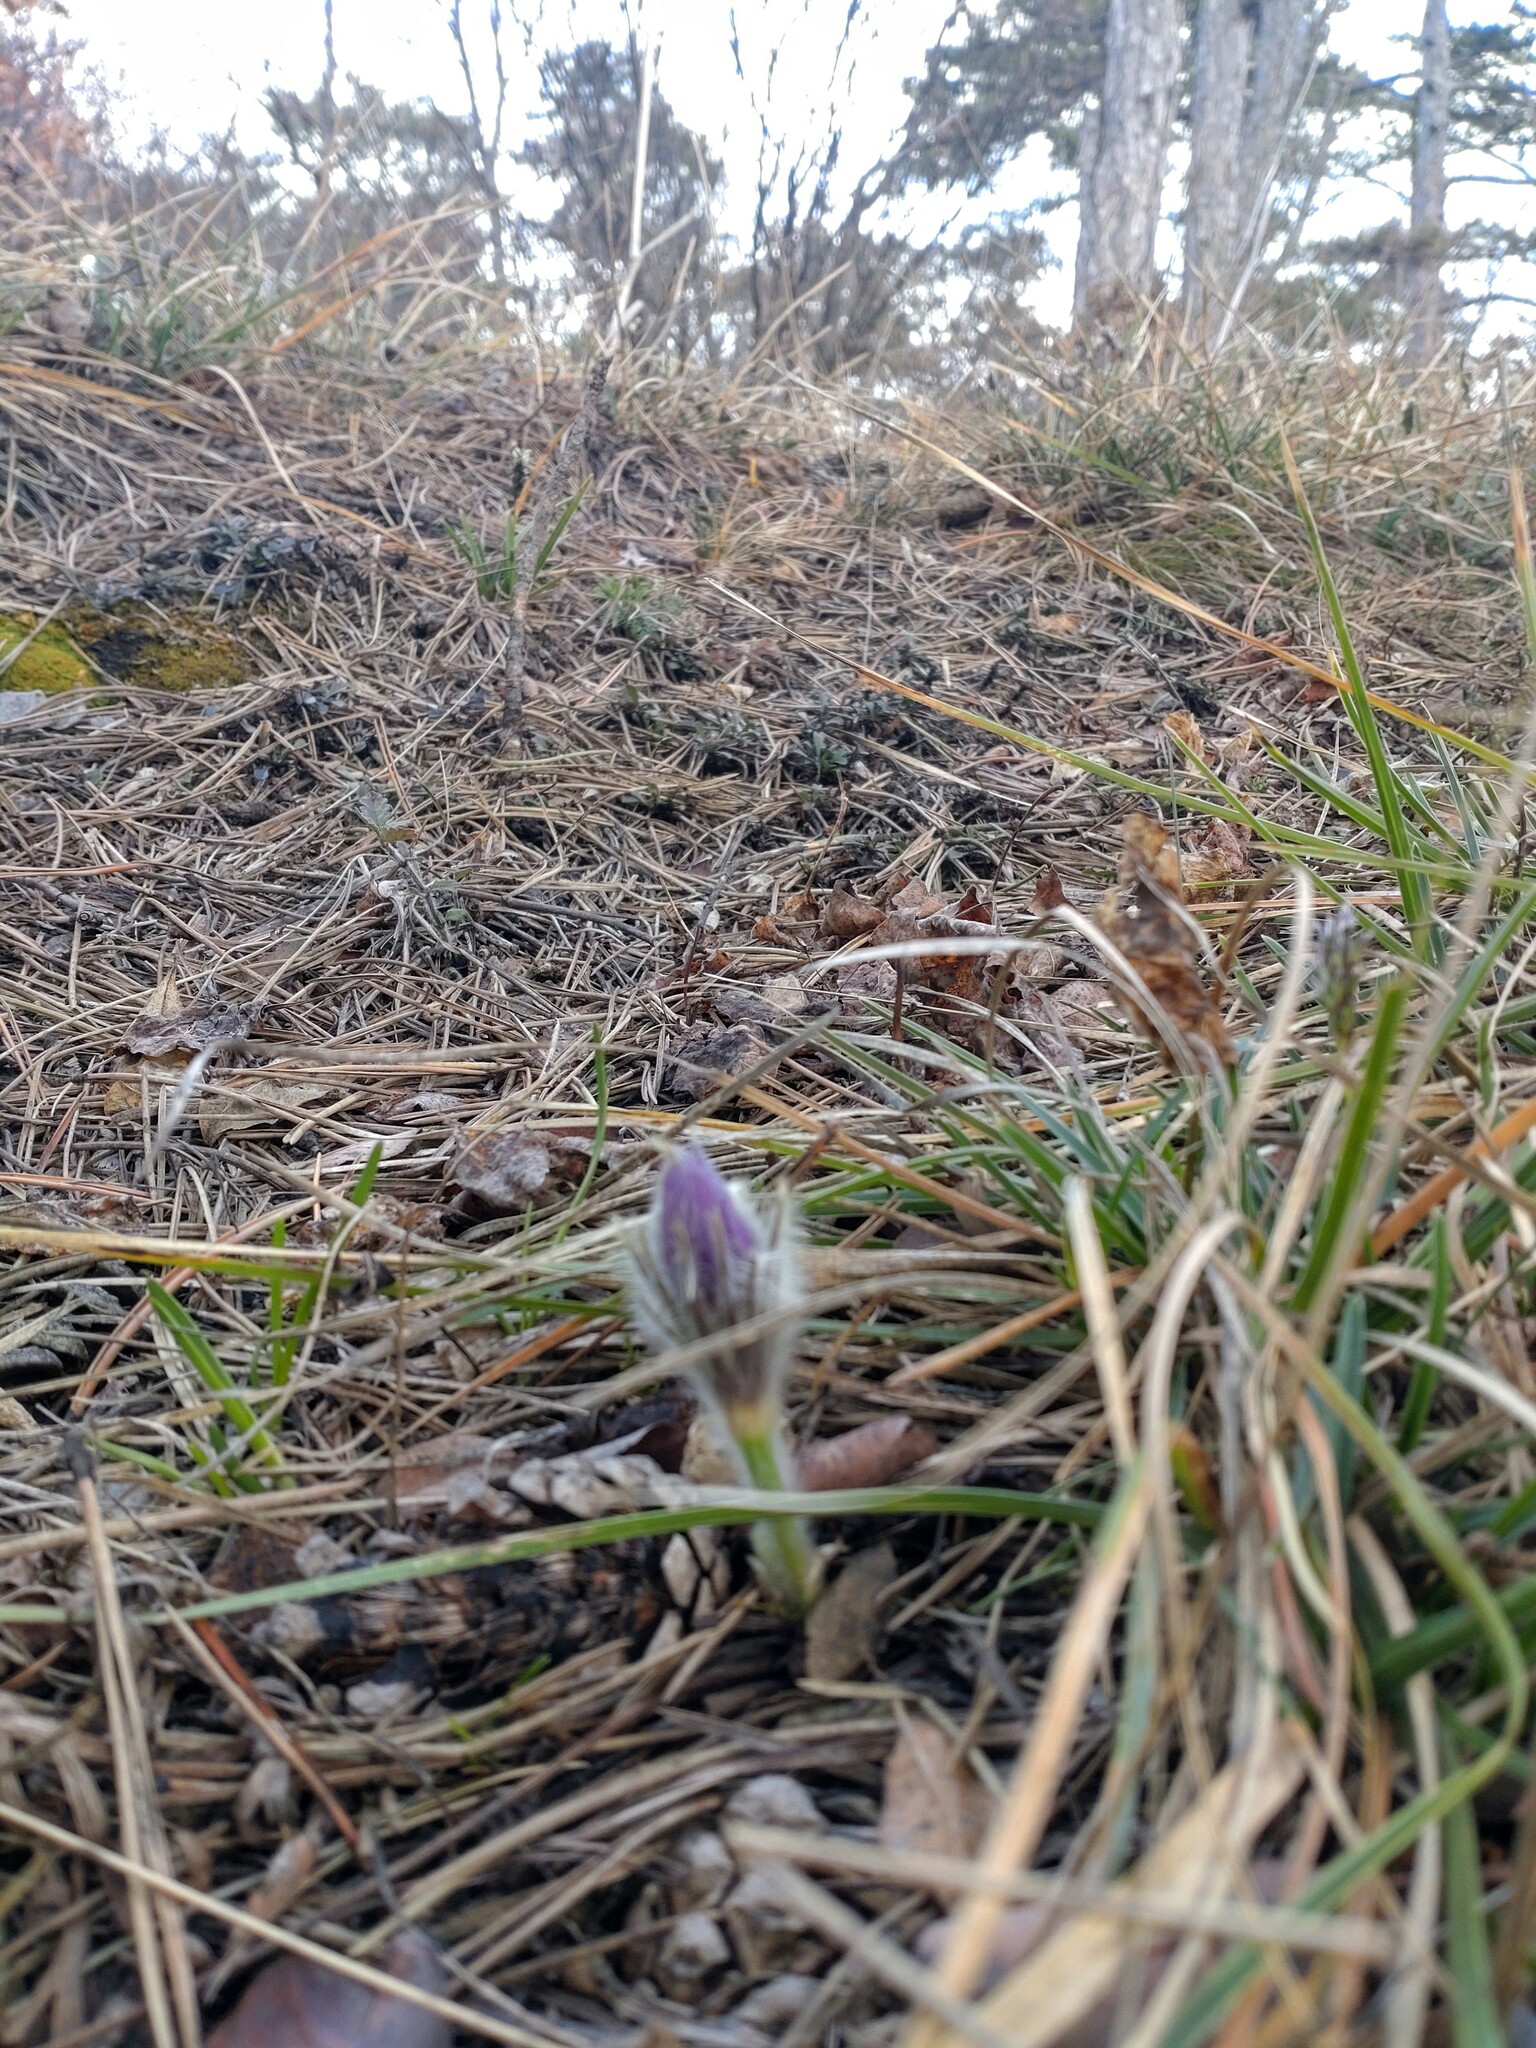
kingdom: Plantae
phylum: Tracheophyta
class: Magnoliopsida
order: Ranunculales
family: Ranunculaceae
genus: Pulsatilla
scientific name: Pulsatilla grandis
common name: Greater pasque flower
